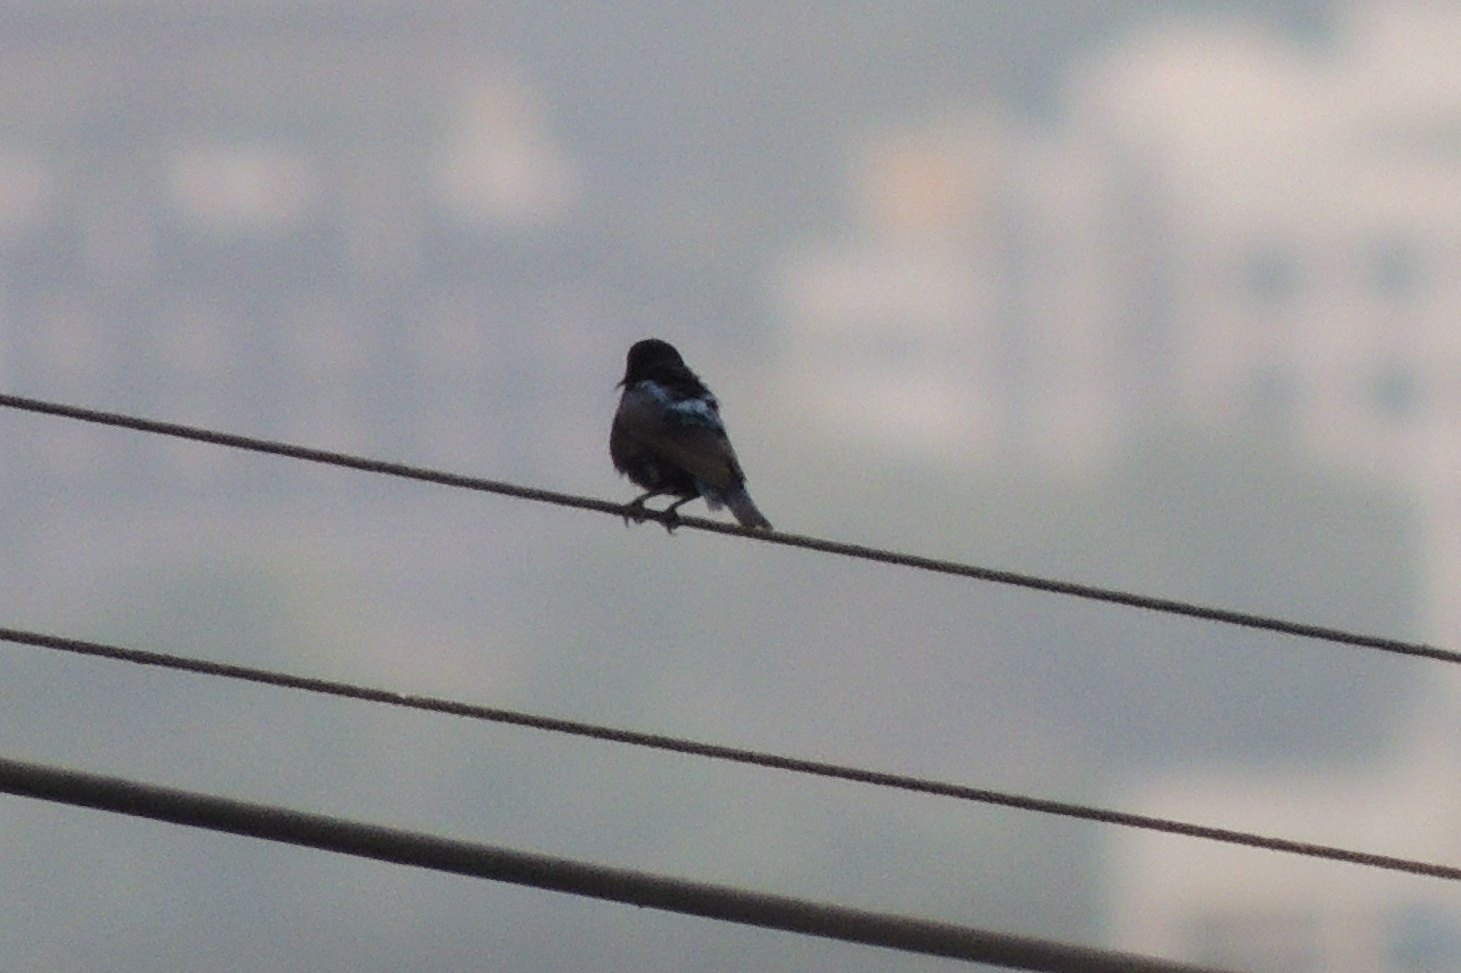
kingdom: Animalia
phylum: Chordata
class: Aves
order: Passeriformes
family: Nectariniidae
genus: Cinnyris
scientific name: Cinnyris asiaticus
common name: Purple sunbird
